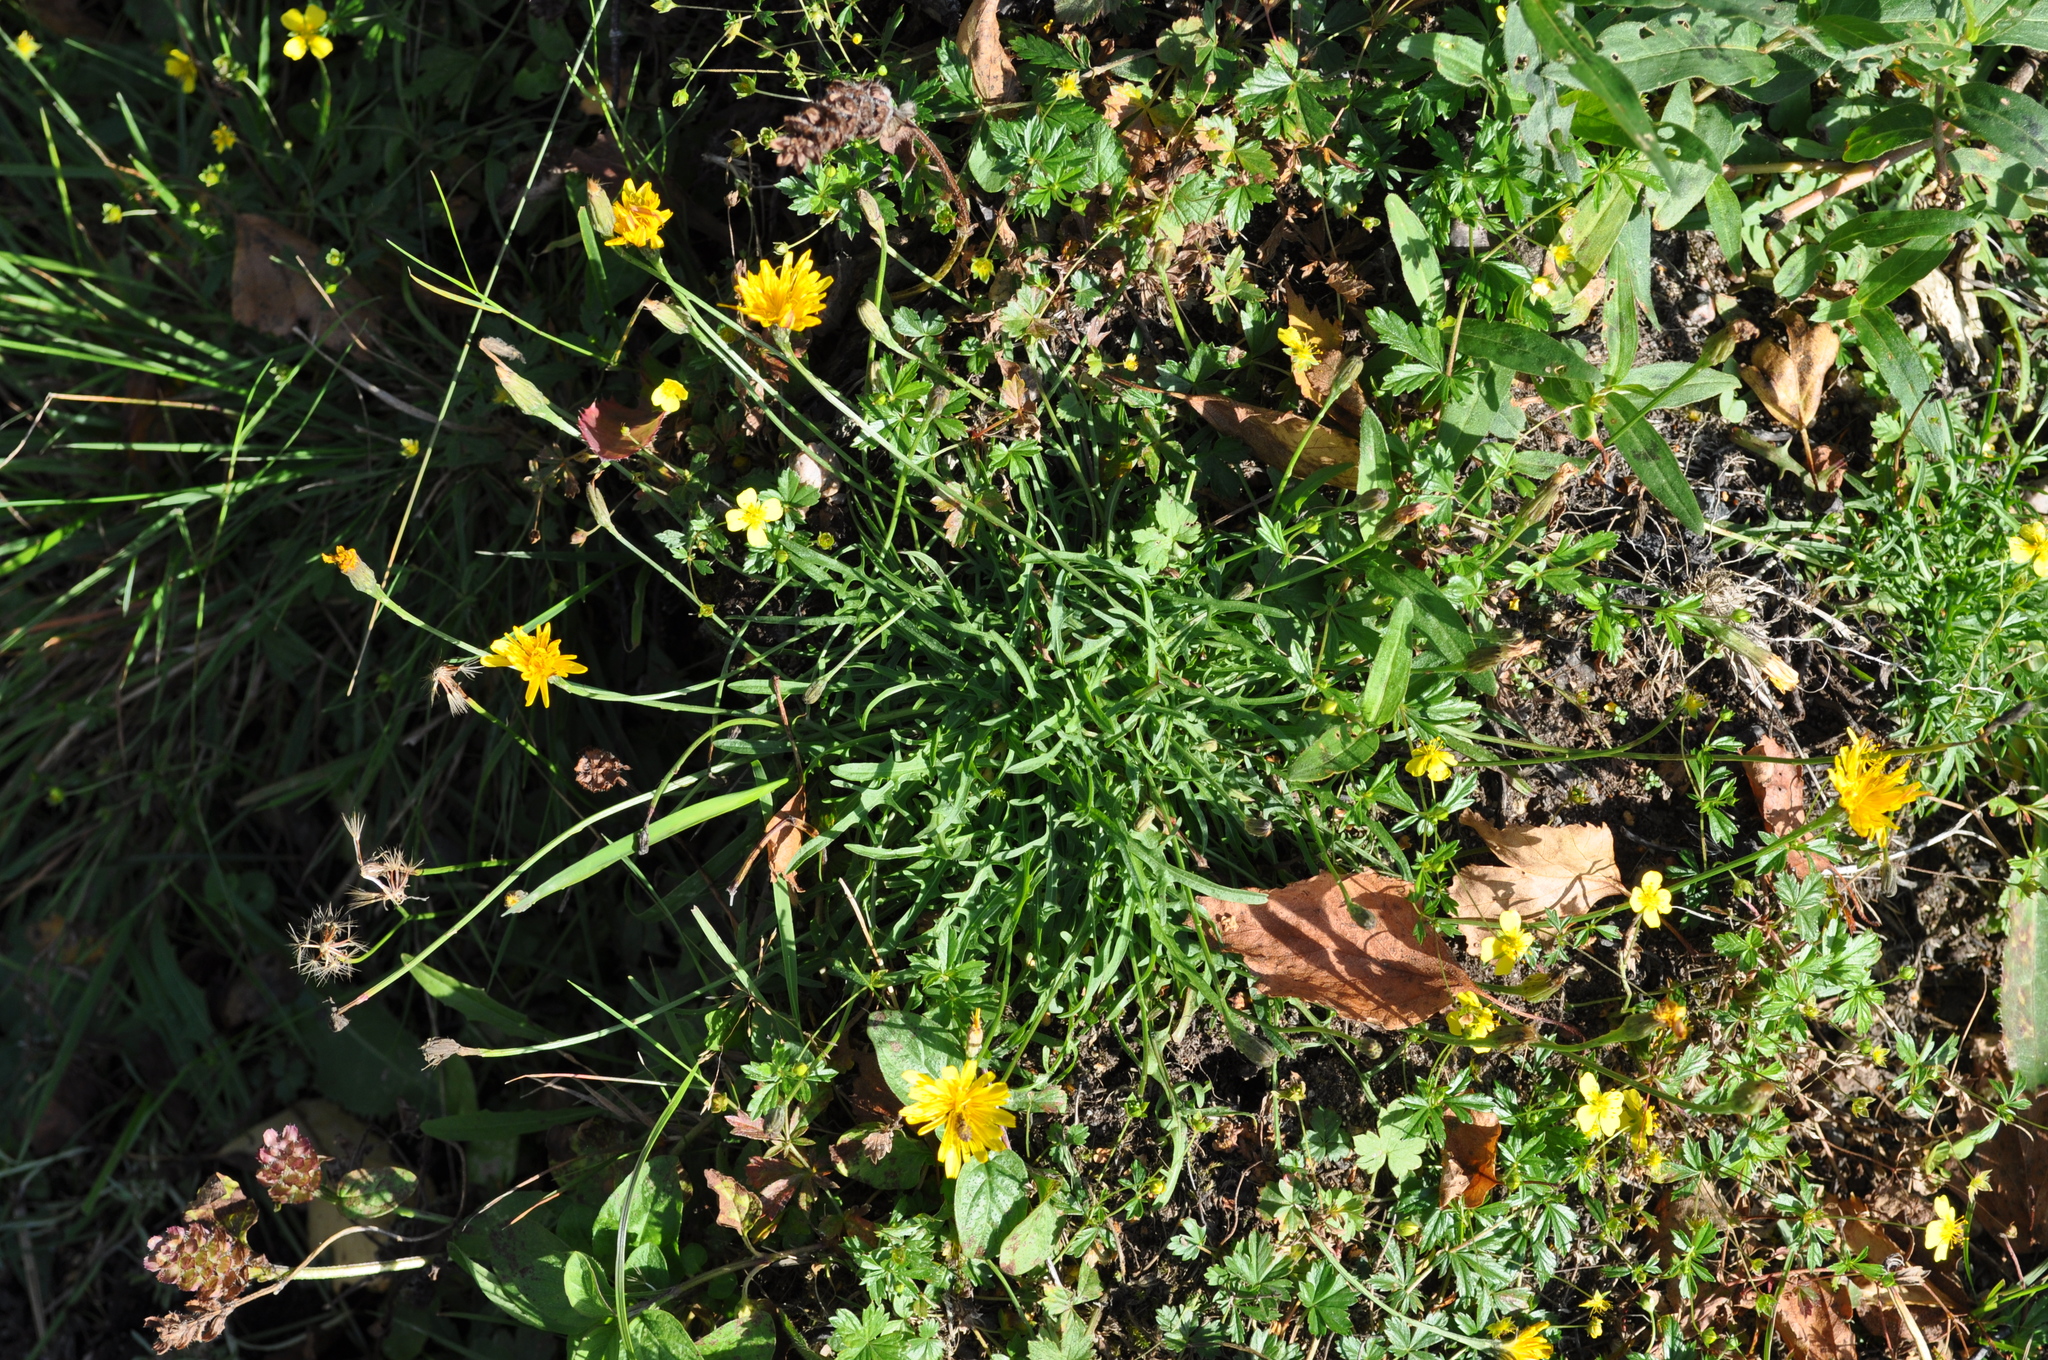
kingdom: Plantae
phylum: Tracheophyta
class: Magnoliopsida
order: Asterales
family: Asteraceae
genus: Scorzoneroides
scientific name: Scorzoneroides autumnalis
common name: Autumn hawkbit
